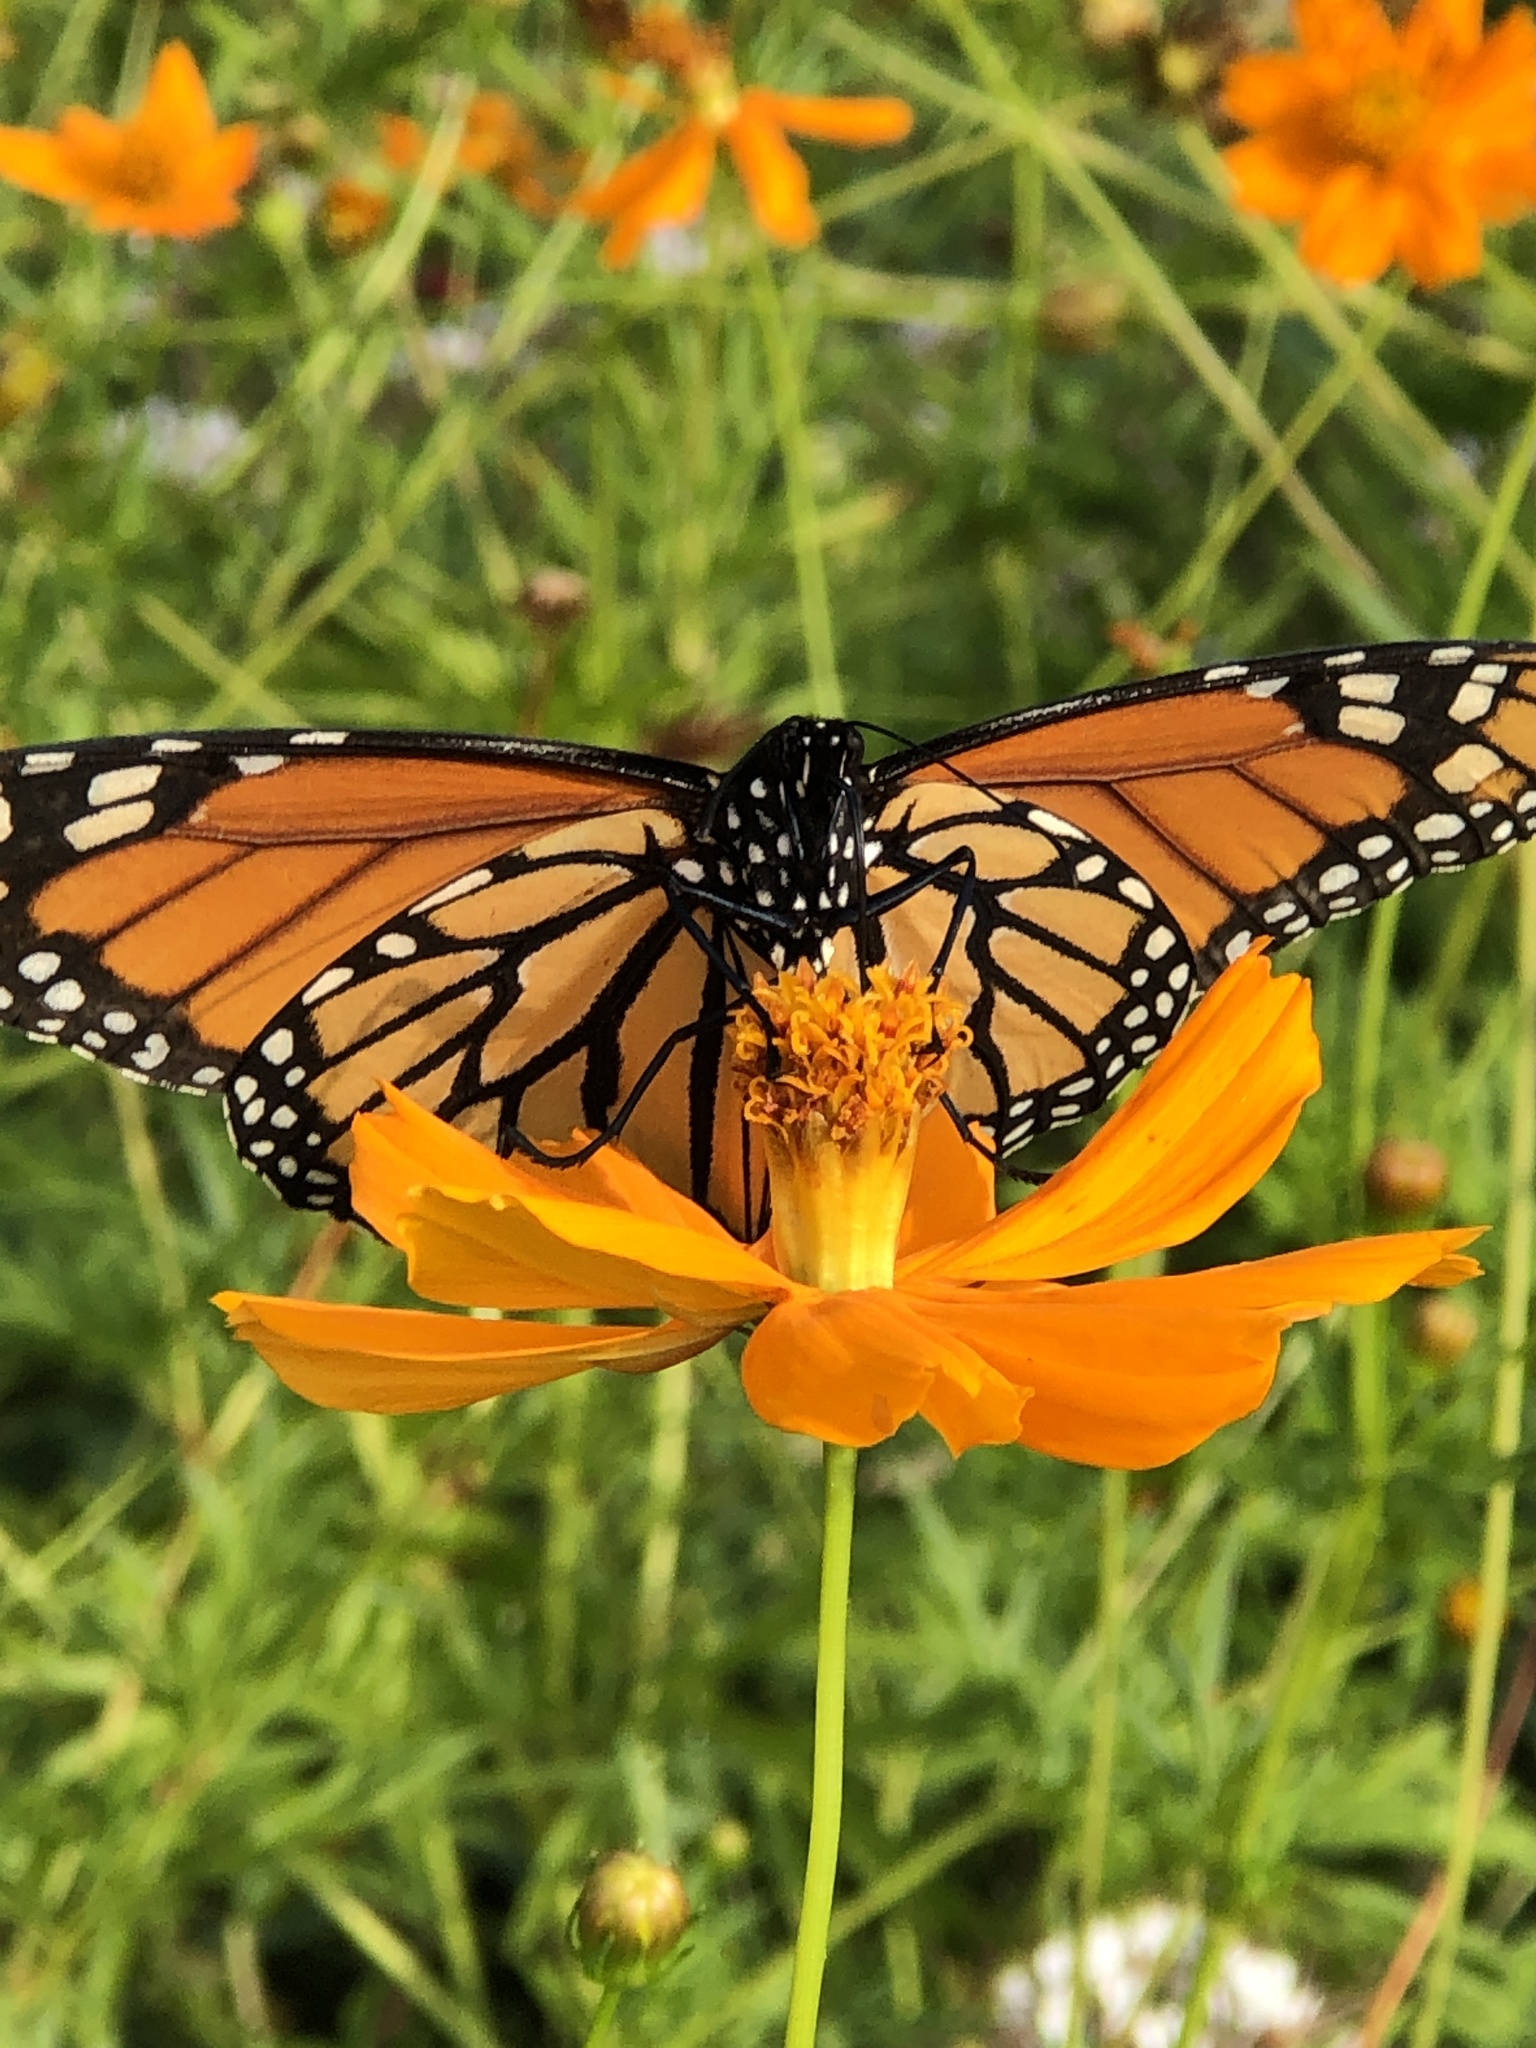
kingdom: Animalia
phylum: Arthropoda
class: Insecta
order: Lepidoptera
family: Nymphalidae
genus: Danaus
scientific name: Danaus plexippus
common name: Monarch
